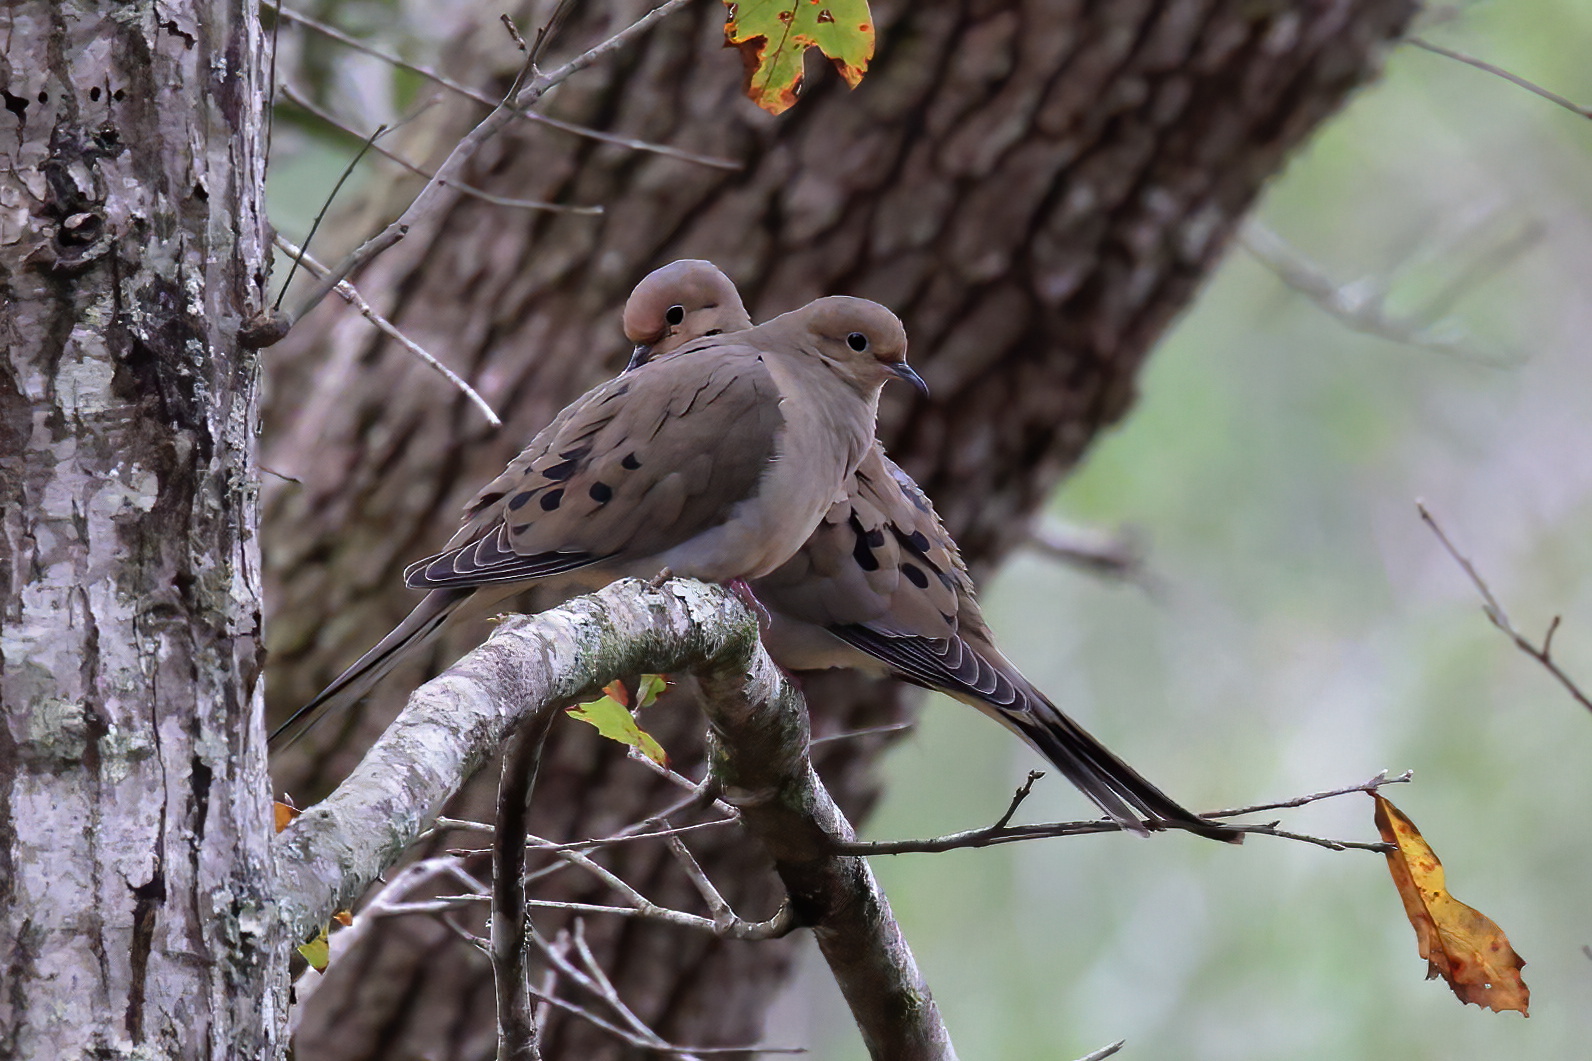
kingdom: Animalia
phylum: Chordata
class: Aves
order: Columbiformes
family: Columbidae
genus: Zenaida
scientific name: Zenaida macroura
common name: Mourning dove
